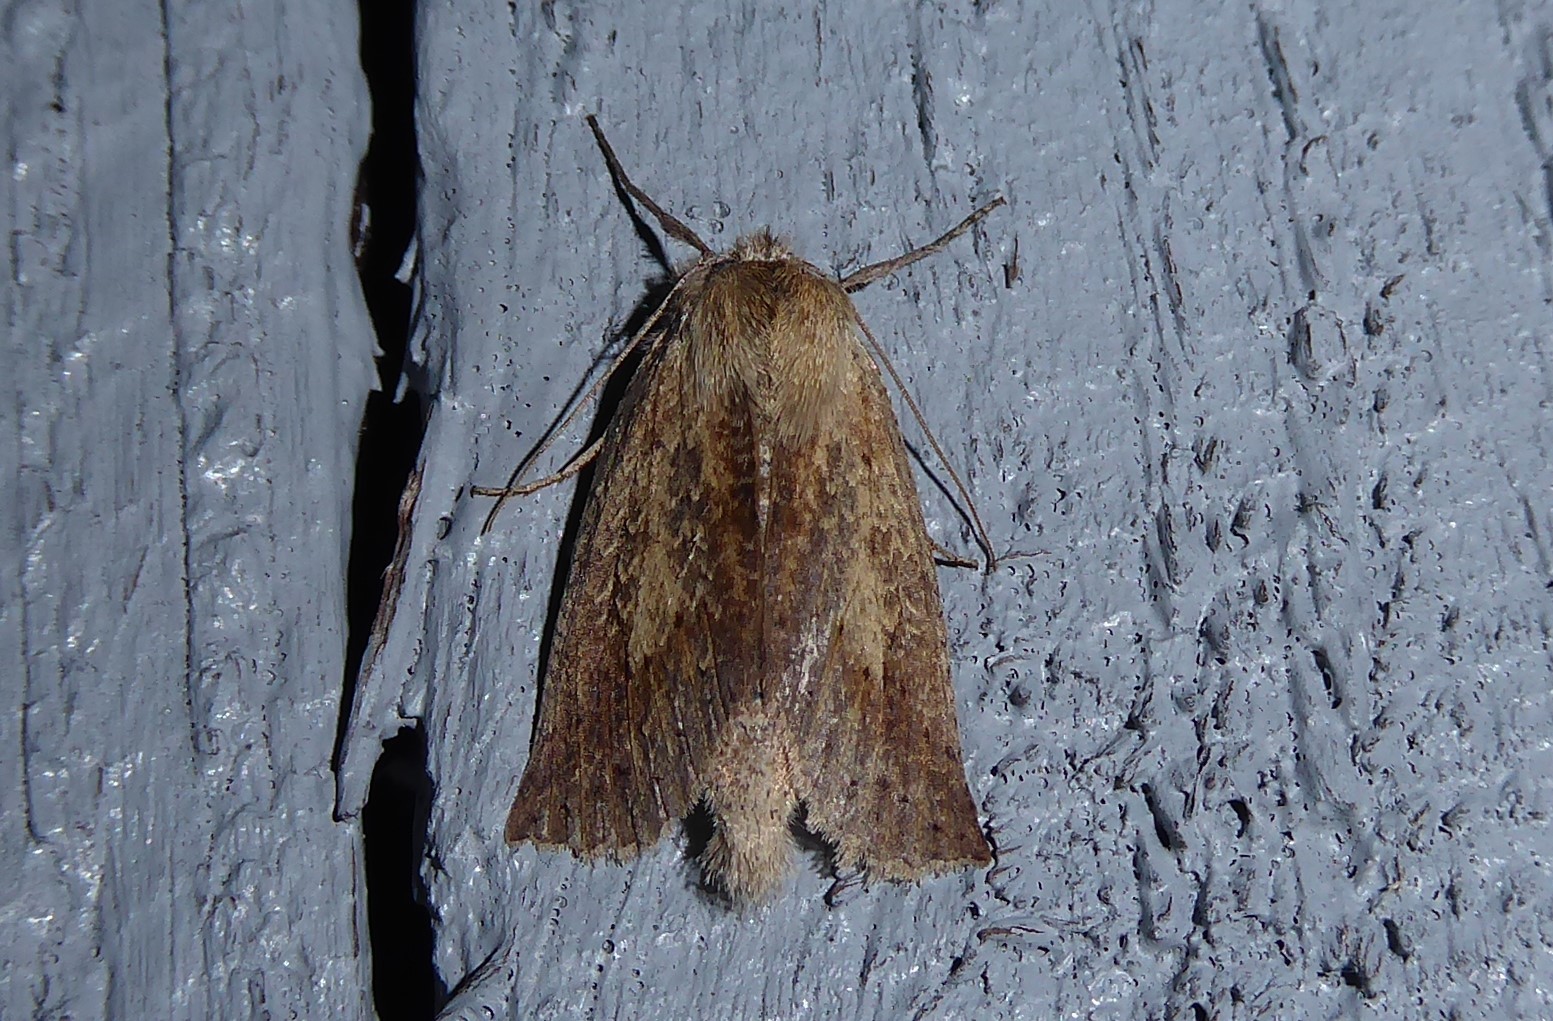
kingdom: Animalia
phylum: Arthropoda
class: Insecta
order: Lepidoptera
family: Geometridae
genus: Declana
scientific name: Declana leptomera
